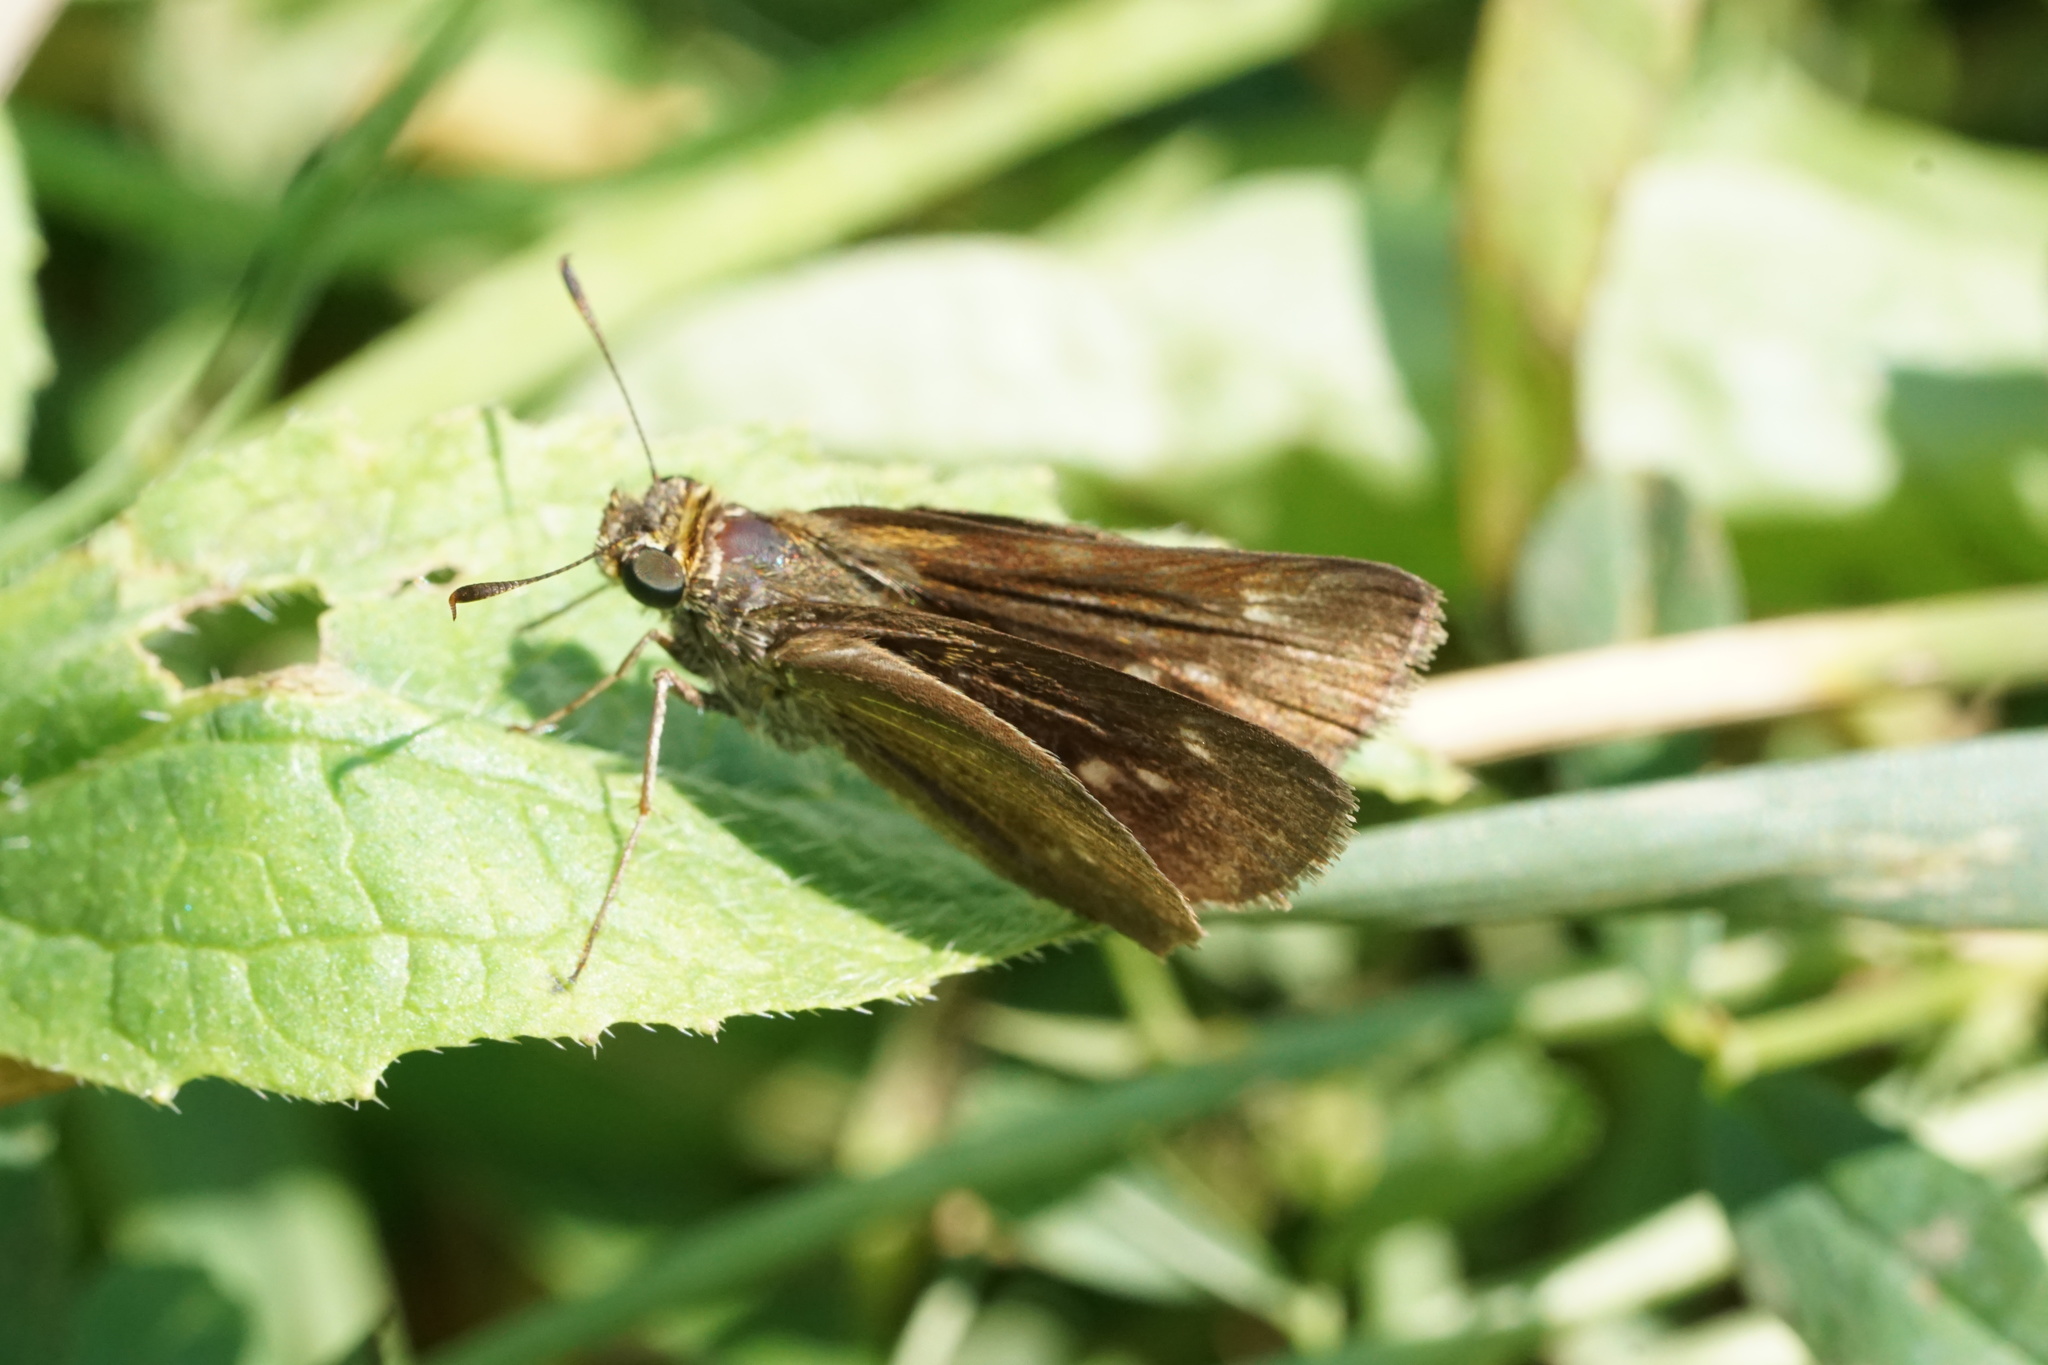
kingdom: Animalia
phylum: Arthropoda
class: Insecta
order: Lepidoptera
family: Hesperiidae
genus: Euphyes
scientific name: Euphyes vestris
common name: Dun skipper
